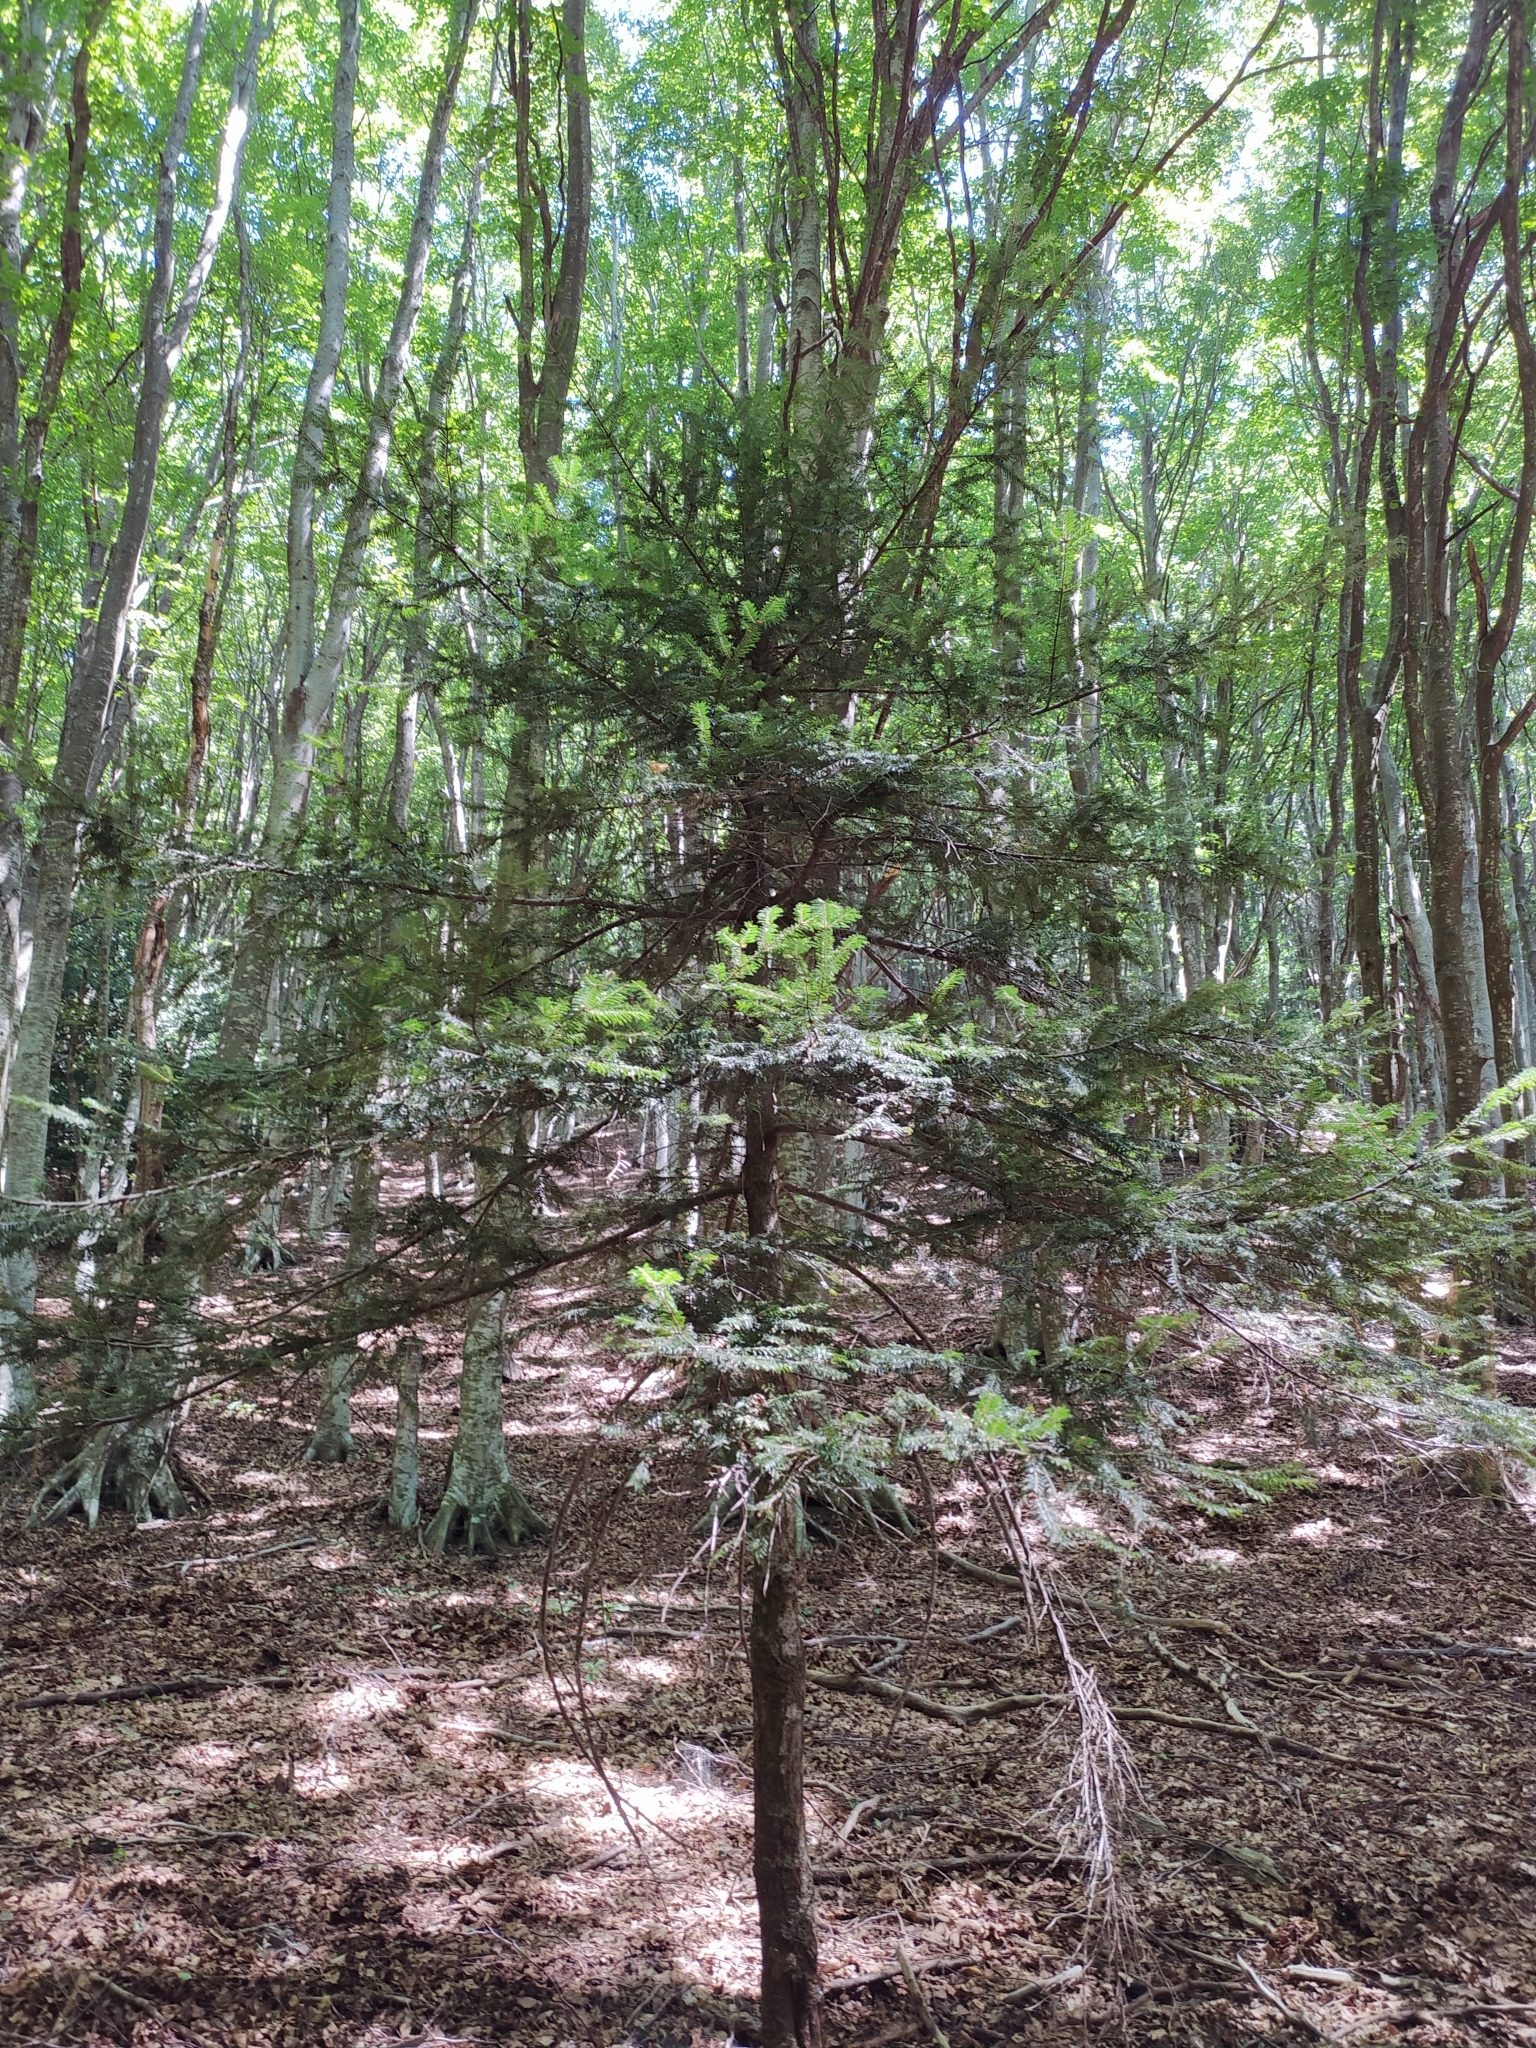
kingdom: Plantae
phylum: Tracheophyta
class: Pinopsida
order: Pinales
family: Taxaceae
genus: Taxus
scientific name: Taxus baccata
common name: Yew
